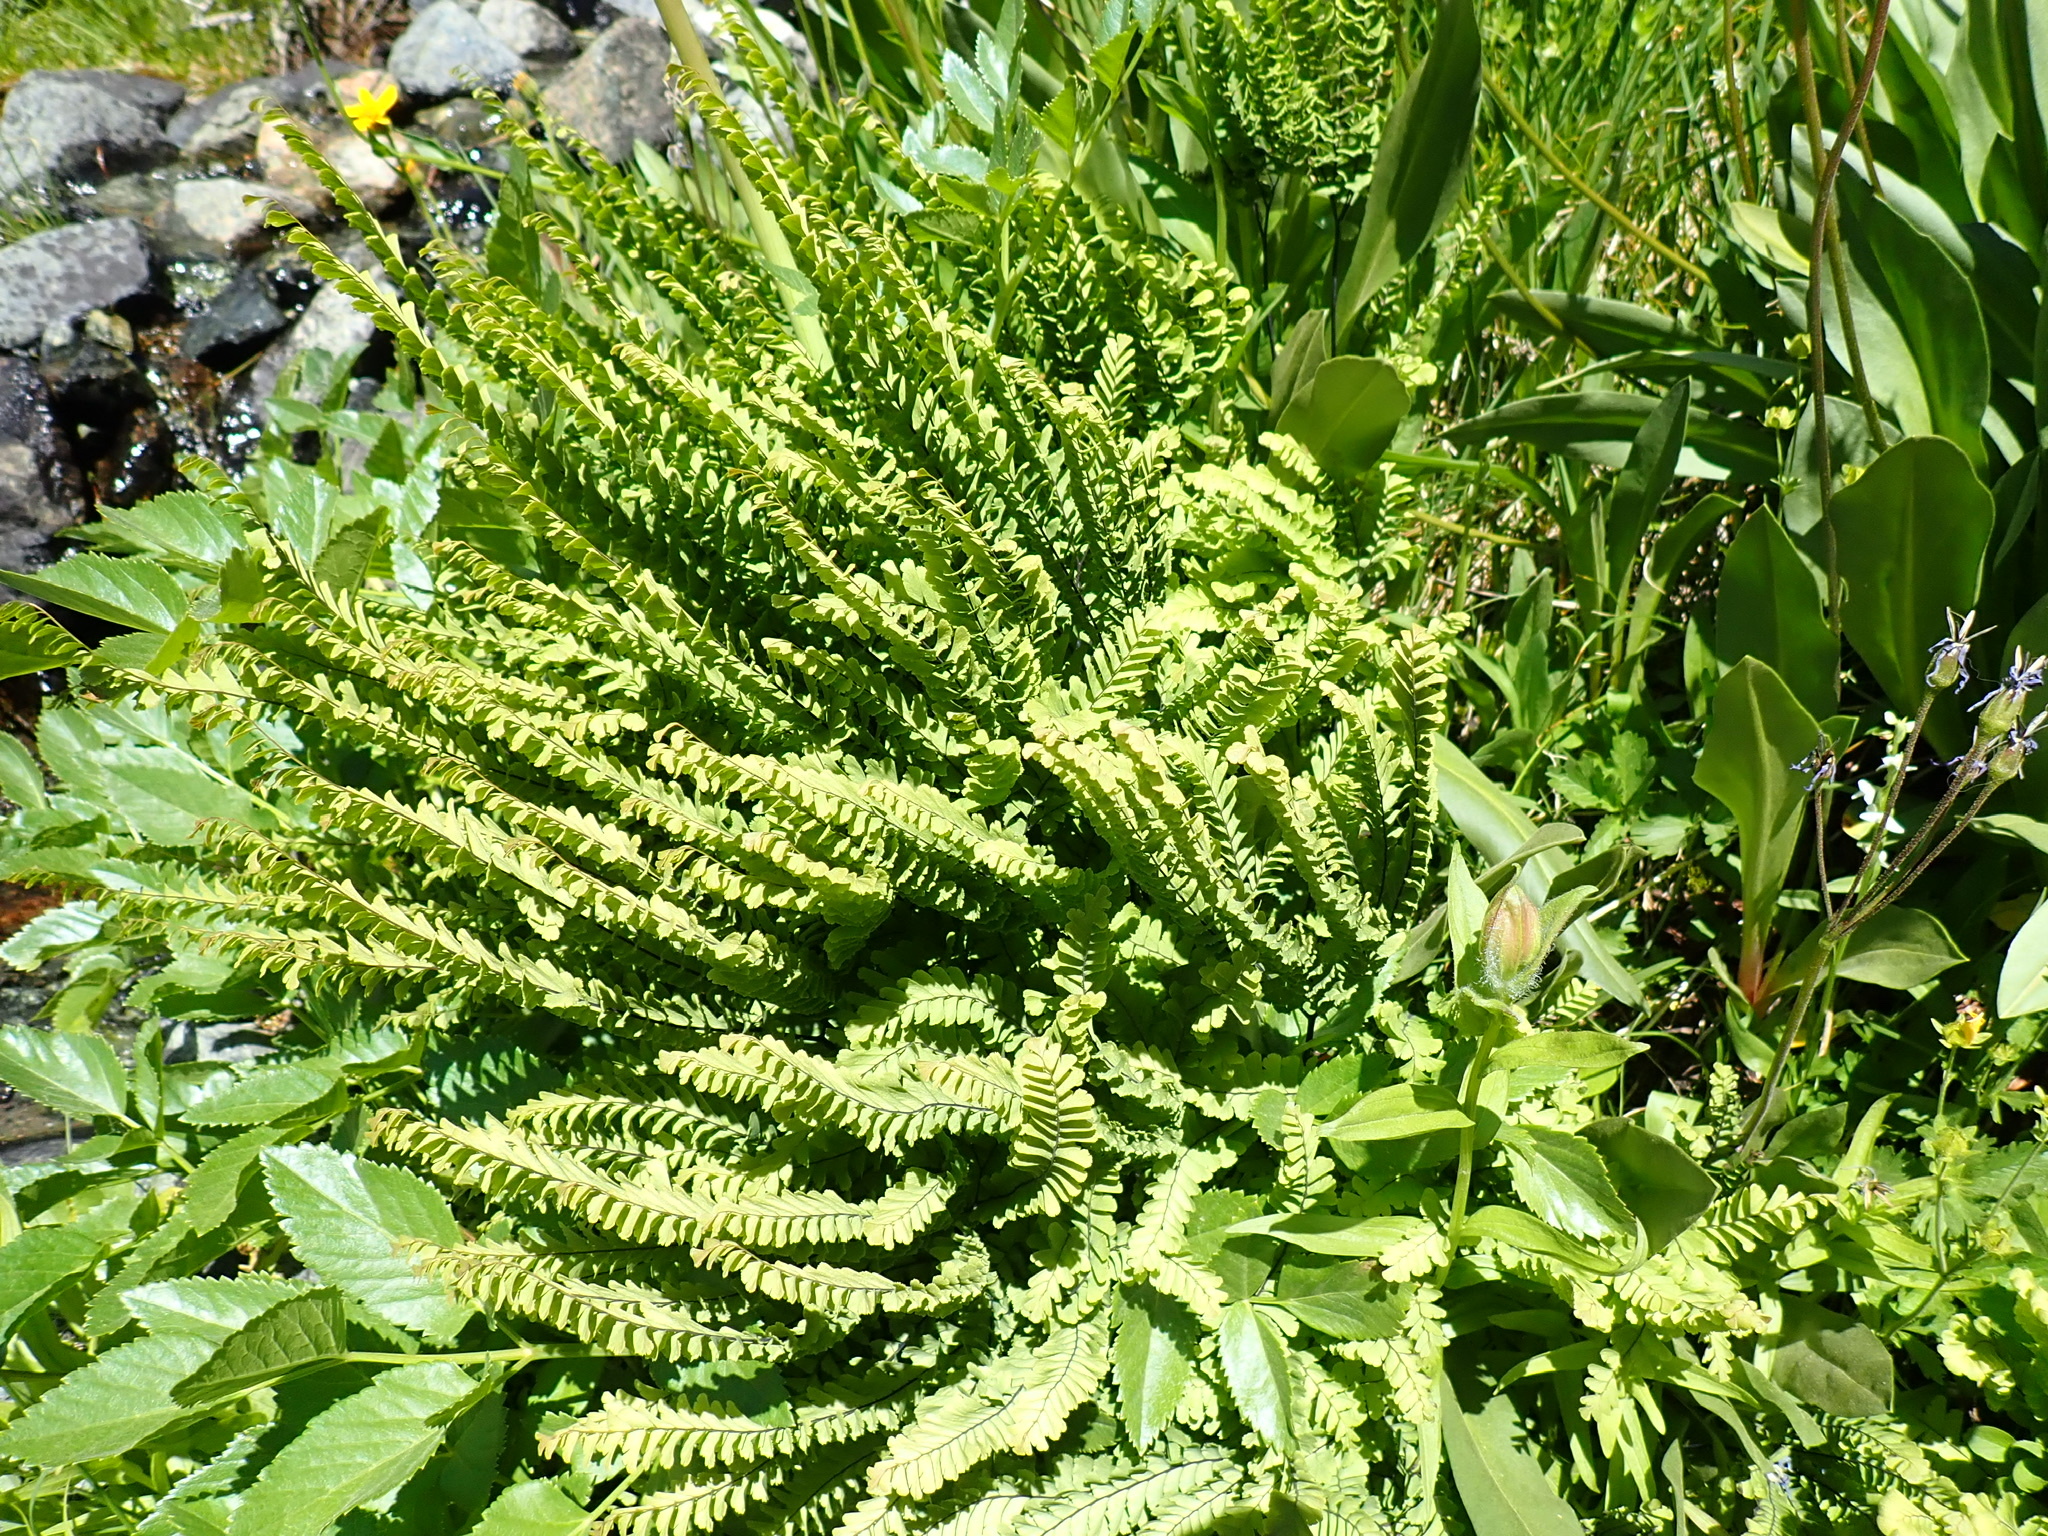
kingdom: Plantae
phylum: Tracheophyta
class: Polypodiopsida
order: Polypodiales
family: Pteridaceae
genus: Adiantum
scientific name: Adiantum aleuticum
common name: Aleutian maidenhair fern
